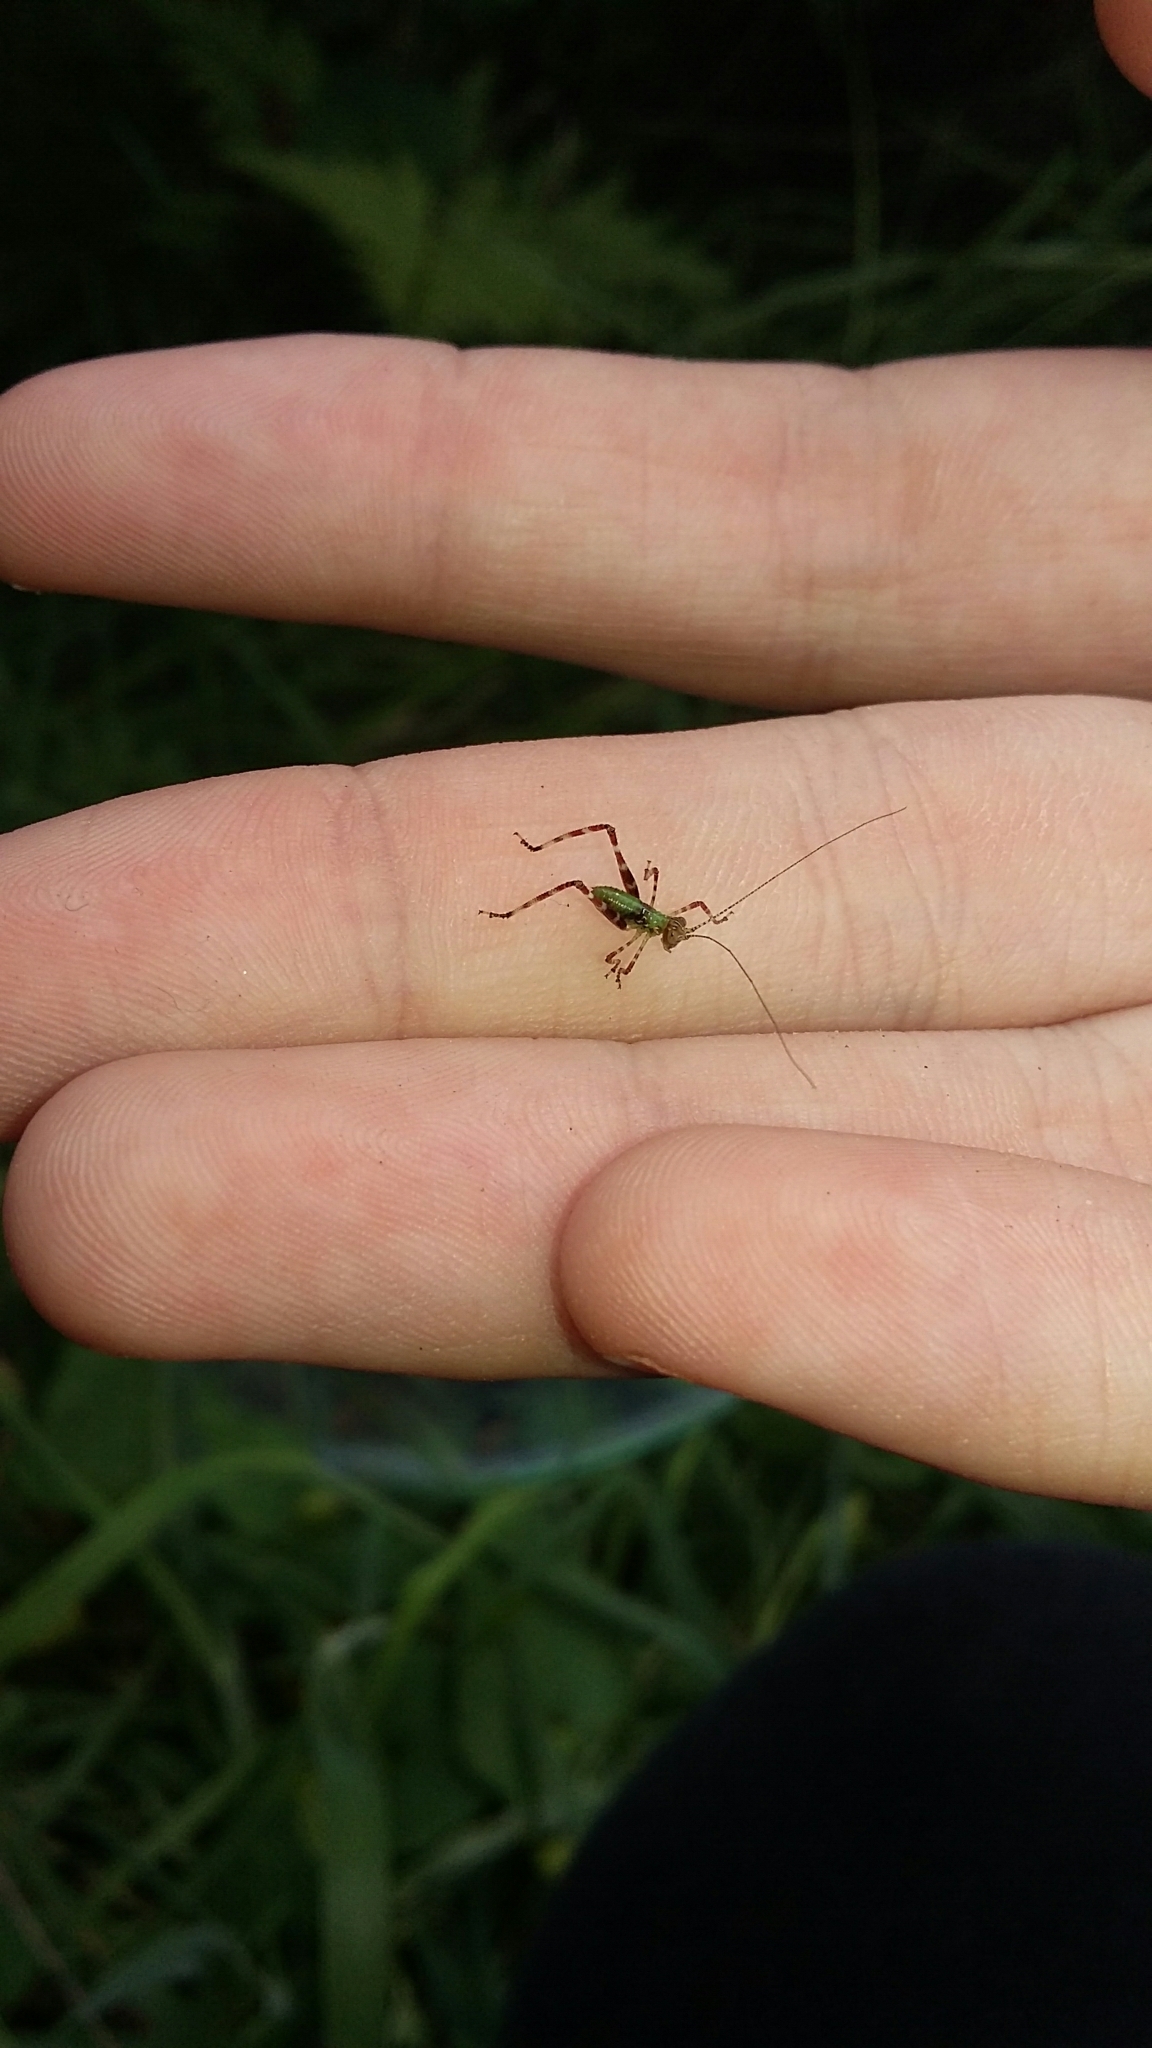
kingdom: Animalia
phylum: Arthropoda
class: Insecta
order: Orthoptera
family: Tettigoniidae
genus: Caedicia
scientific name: Caedicia simplex
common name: Common garden katydid
